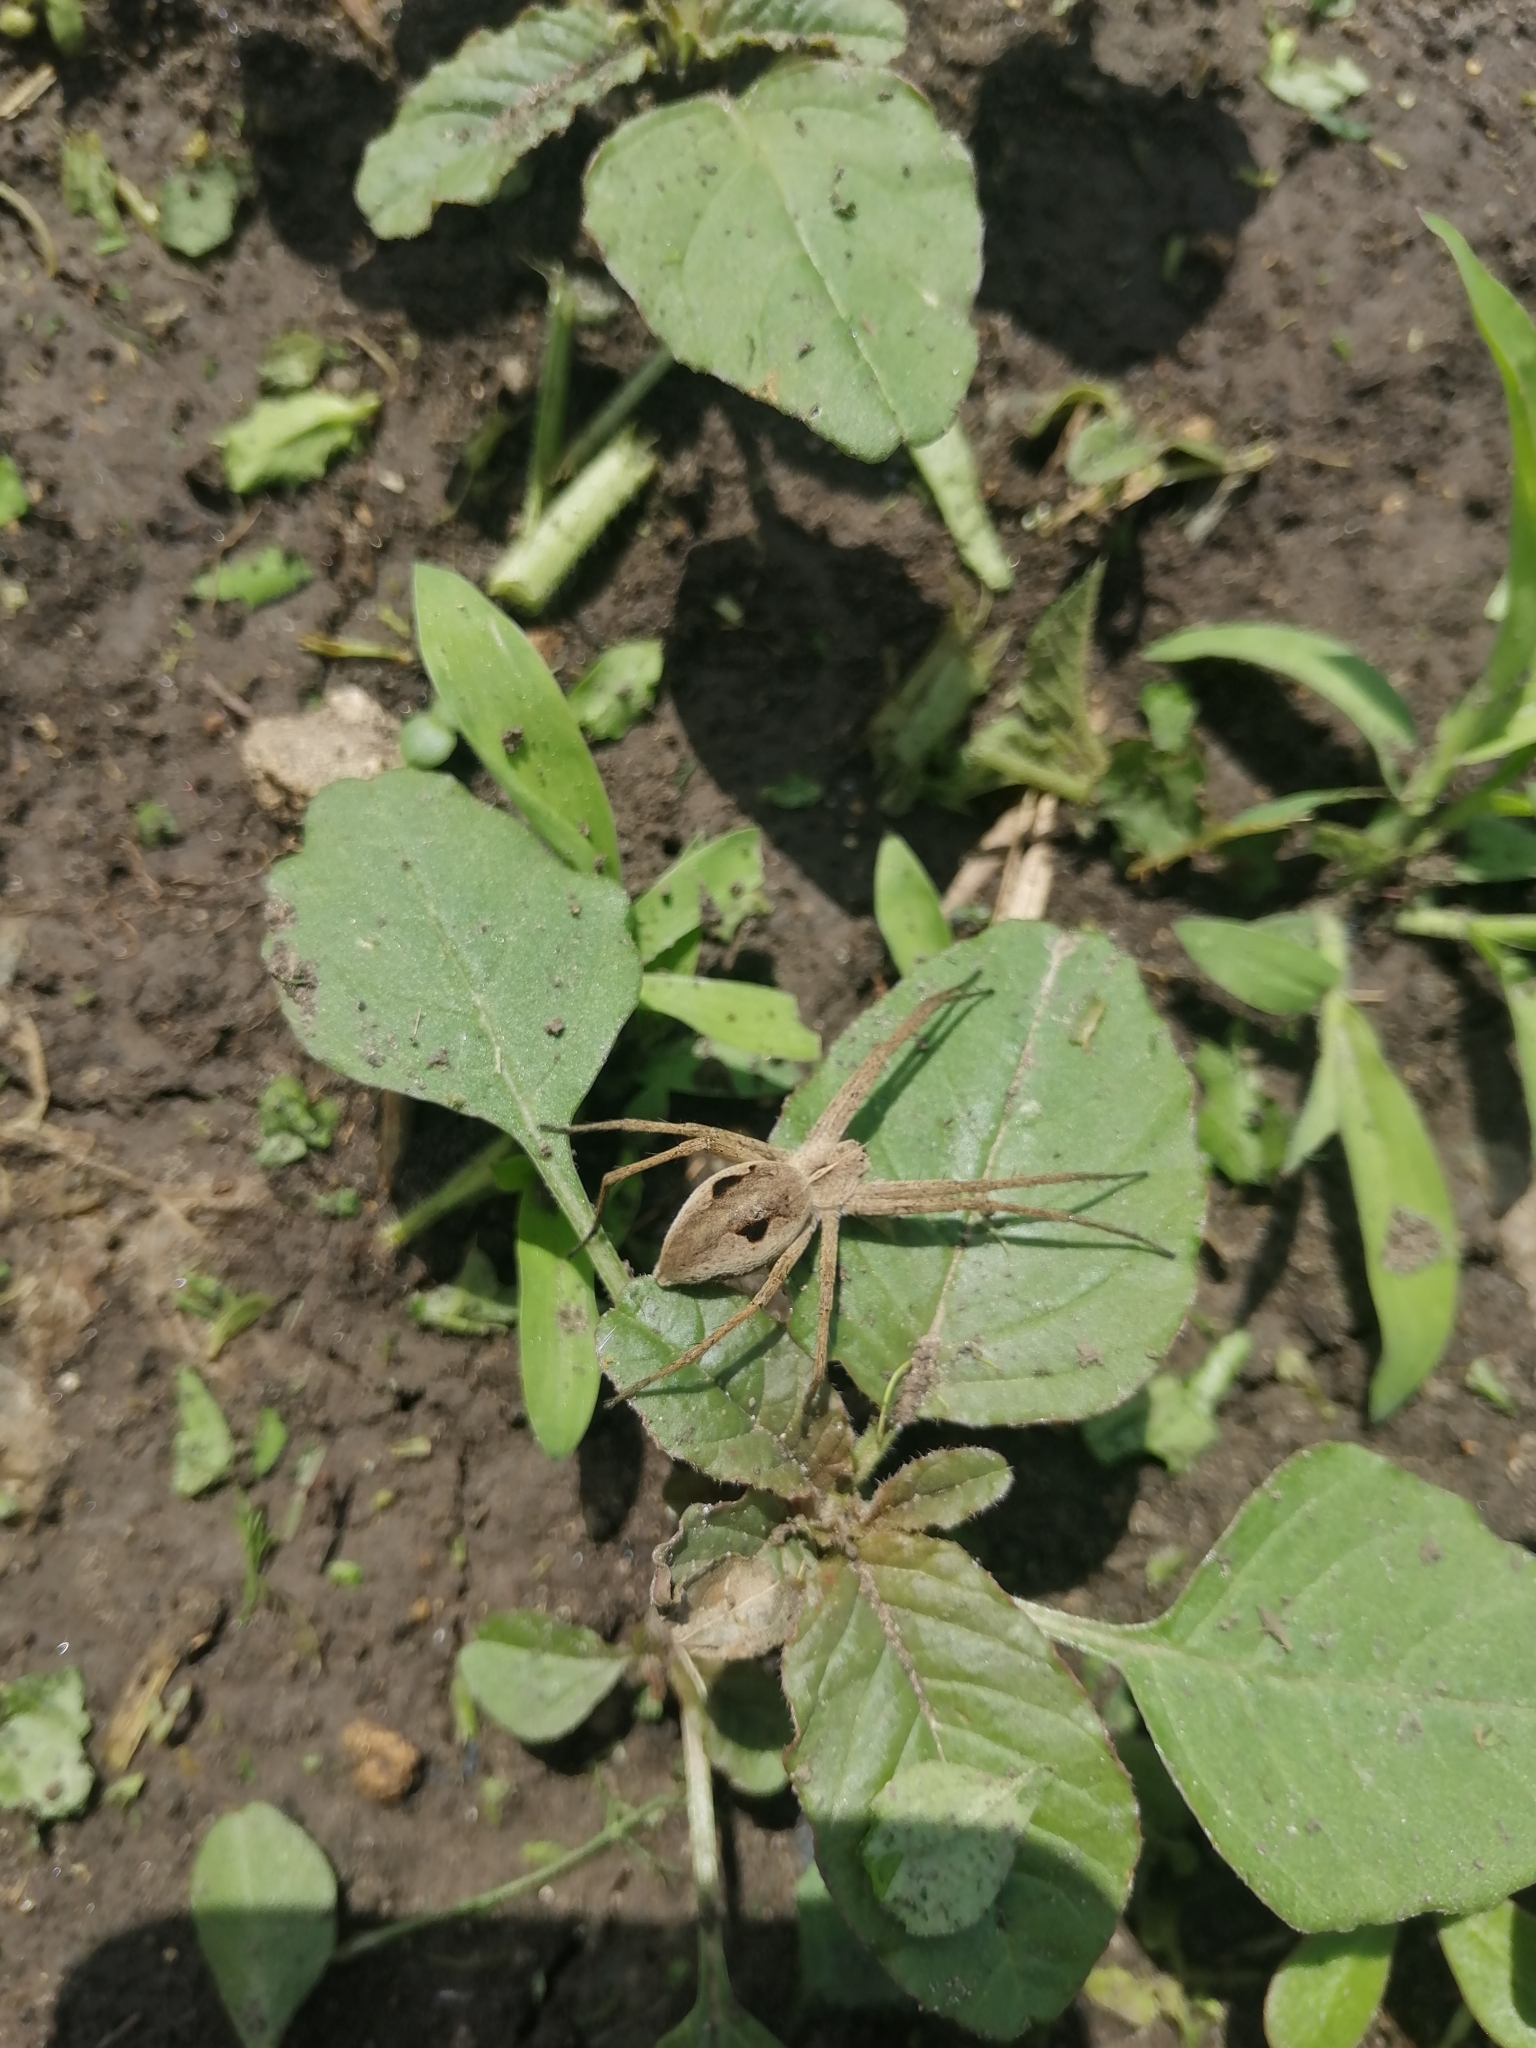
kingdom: Animalia
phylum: Arthropoda
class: Arachnida
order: Araneae
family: Pisauridae
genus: Pisaura
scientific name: Pisaura
